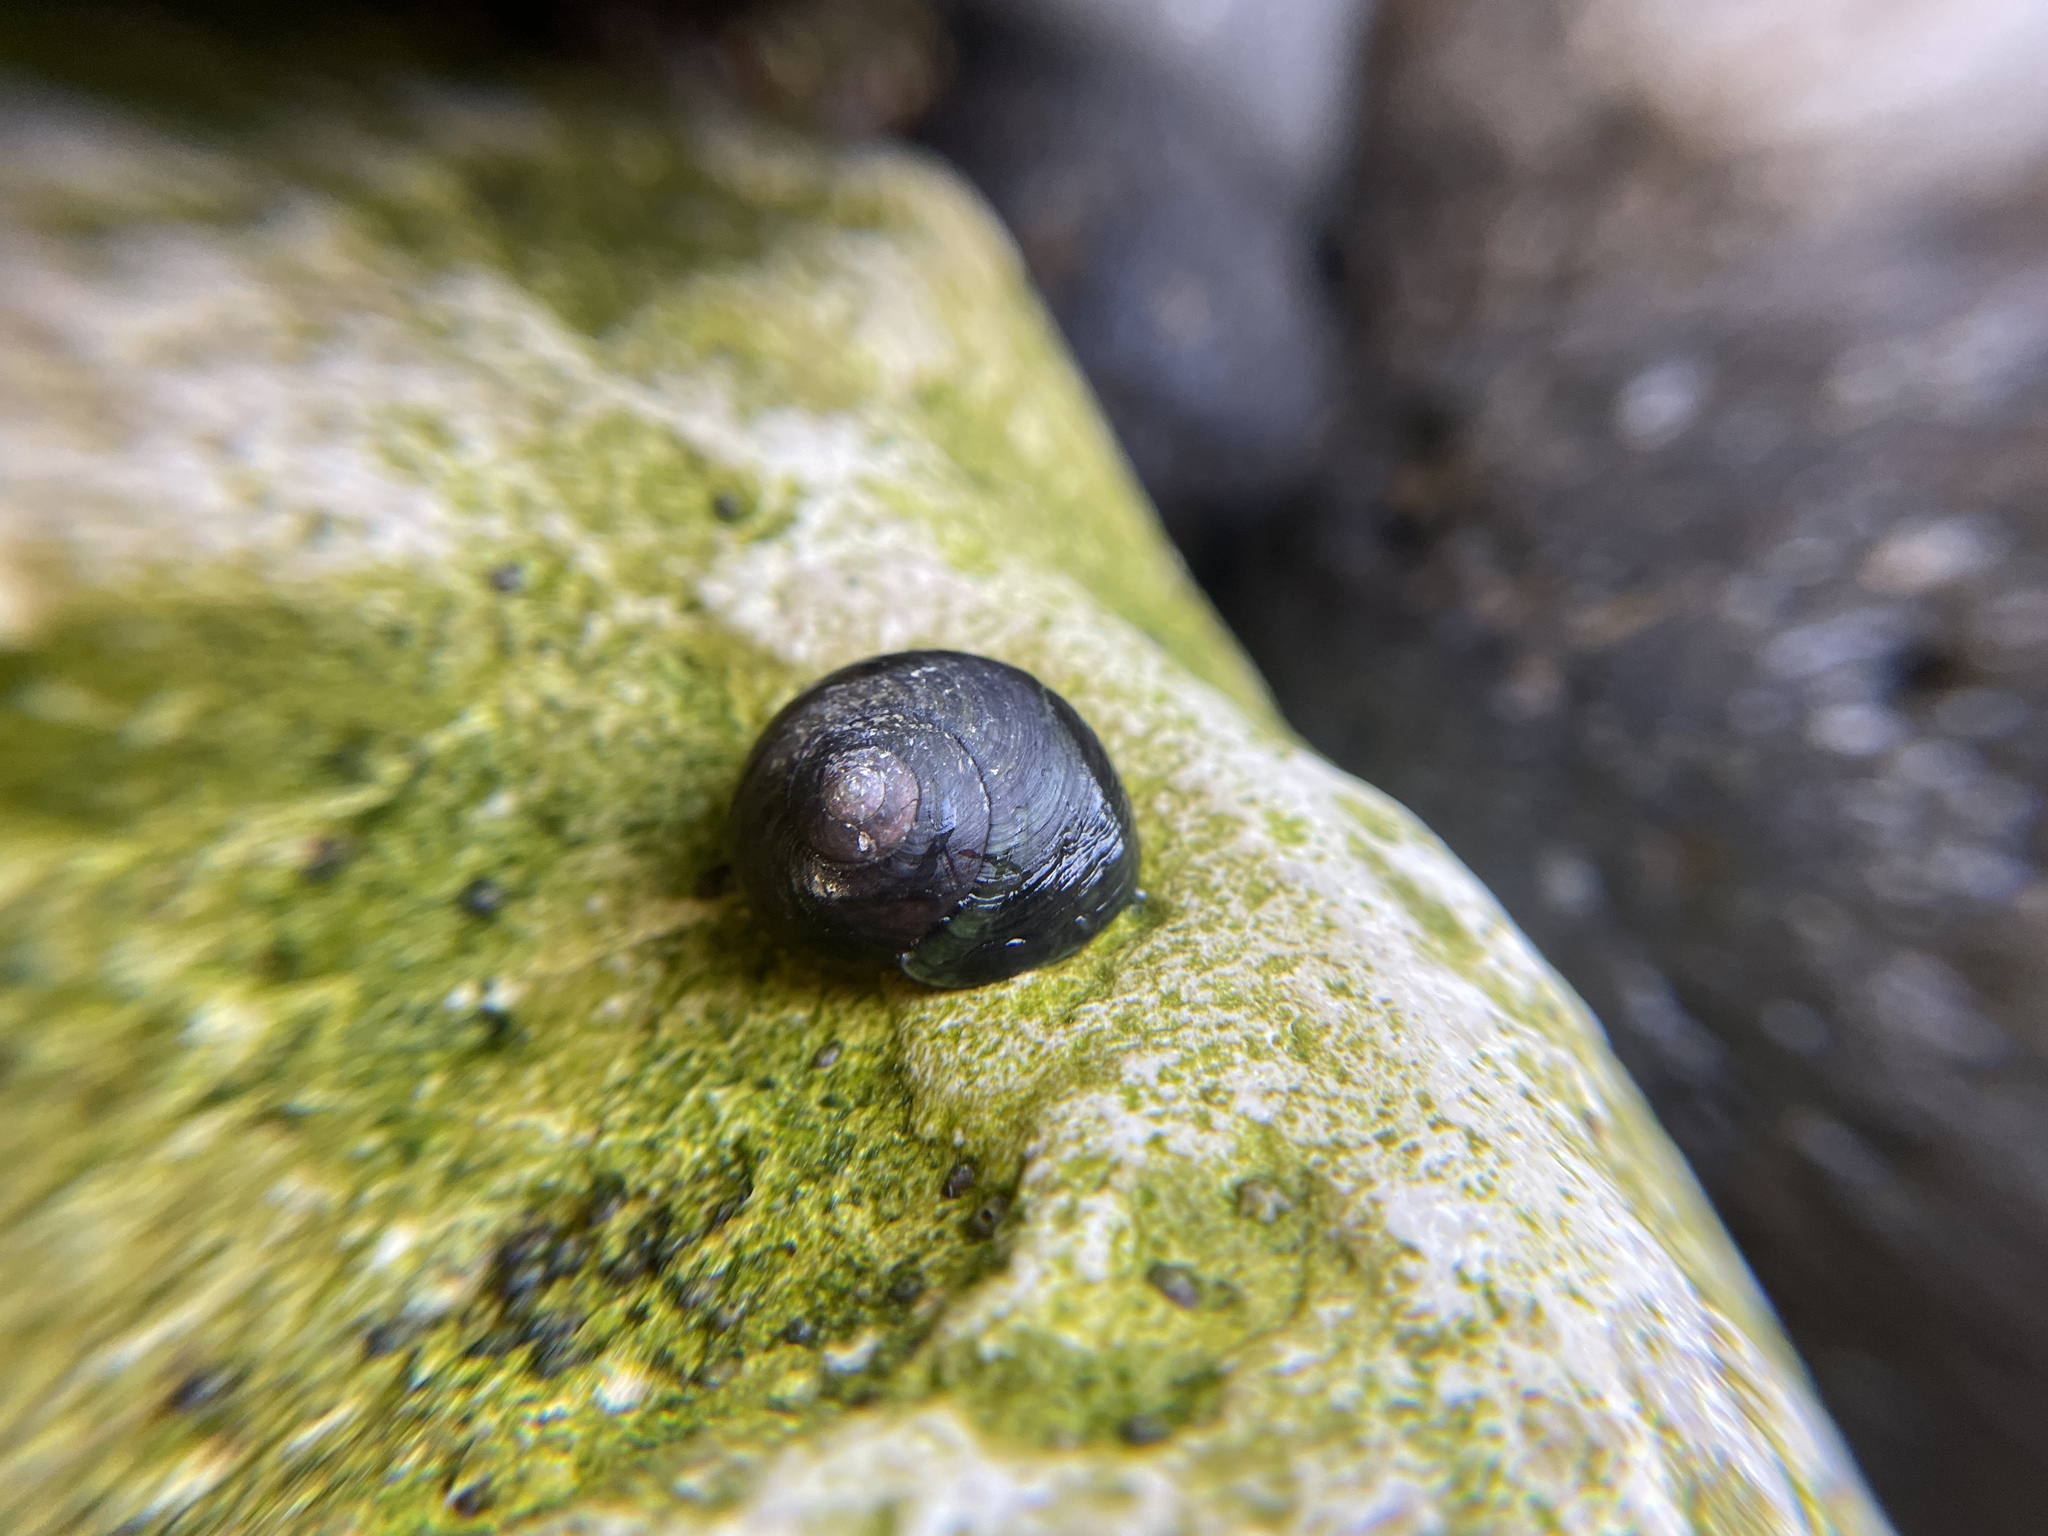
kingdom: Animalia
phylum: Mollusca
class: Gastropoda
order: Trochida
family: Tegulidae
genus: Tegula
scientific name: Tegula funebralis
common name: Black tegula
